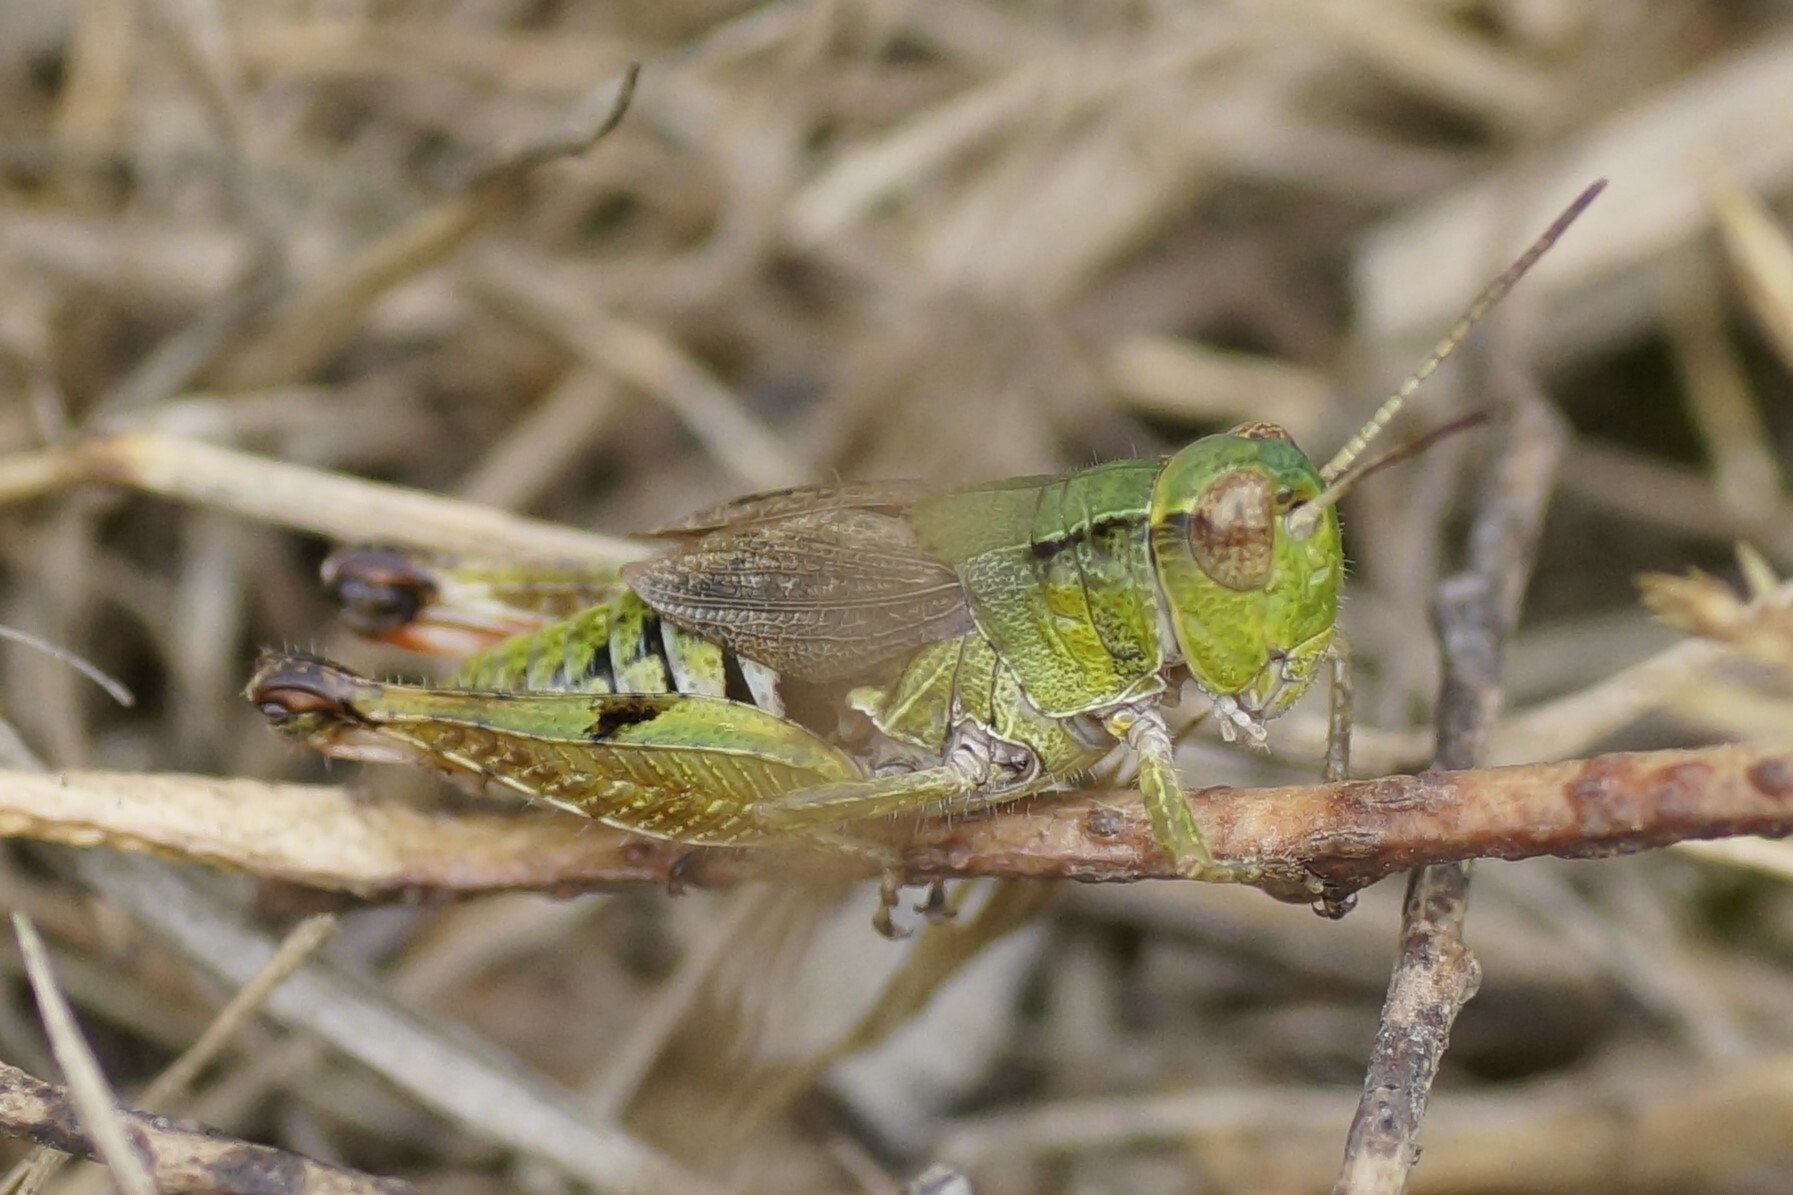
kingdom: Animalia
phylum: Arthropoda
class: Insecta
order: Orthoptera
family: Acrididae
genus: Phaulacridium
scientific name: Phaulacridium vittatum
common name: Wingless grasshopper
